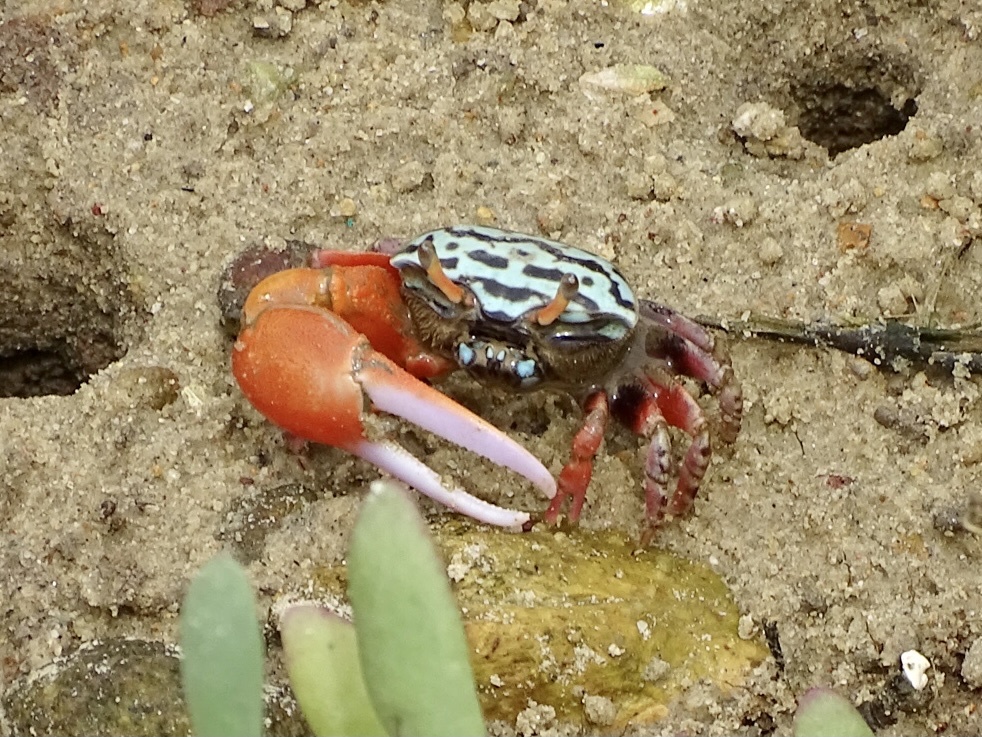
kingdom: Animalia
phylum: Arthropoda
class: Malacostraca
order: Decapoda
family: Ocypodidae
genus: Paraleptuca
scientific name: Paraleptuca splendida
